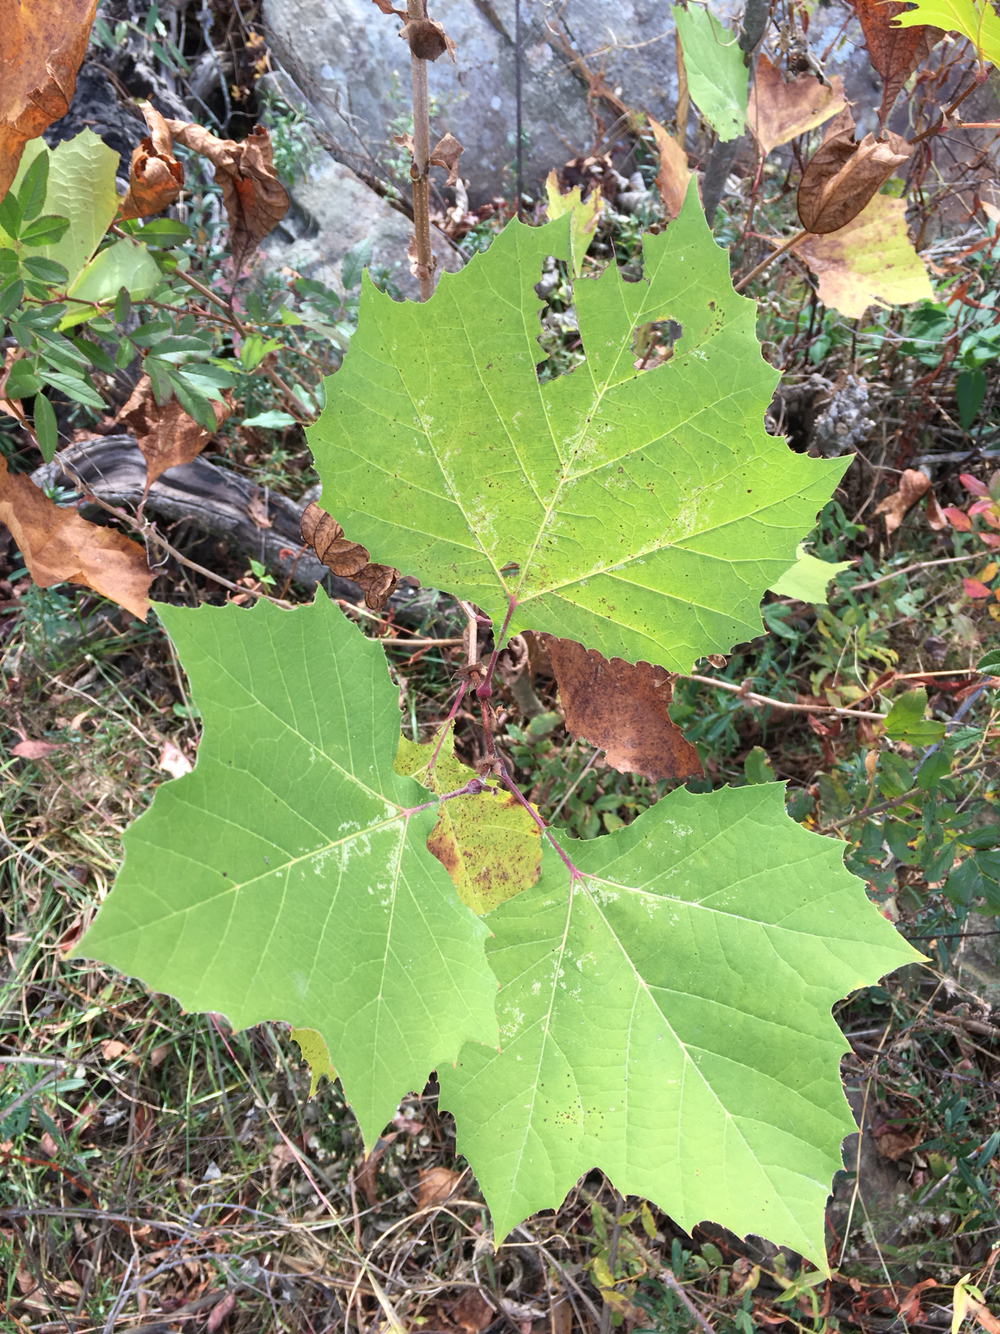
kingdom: Plantae
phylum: Tracheophyta
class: Magnoliopsida
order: Proteales
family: Platanaceae
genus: Platanus
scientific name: Platanus occidentalis
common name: American sycamore
